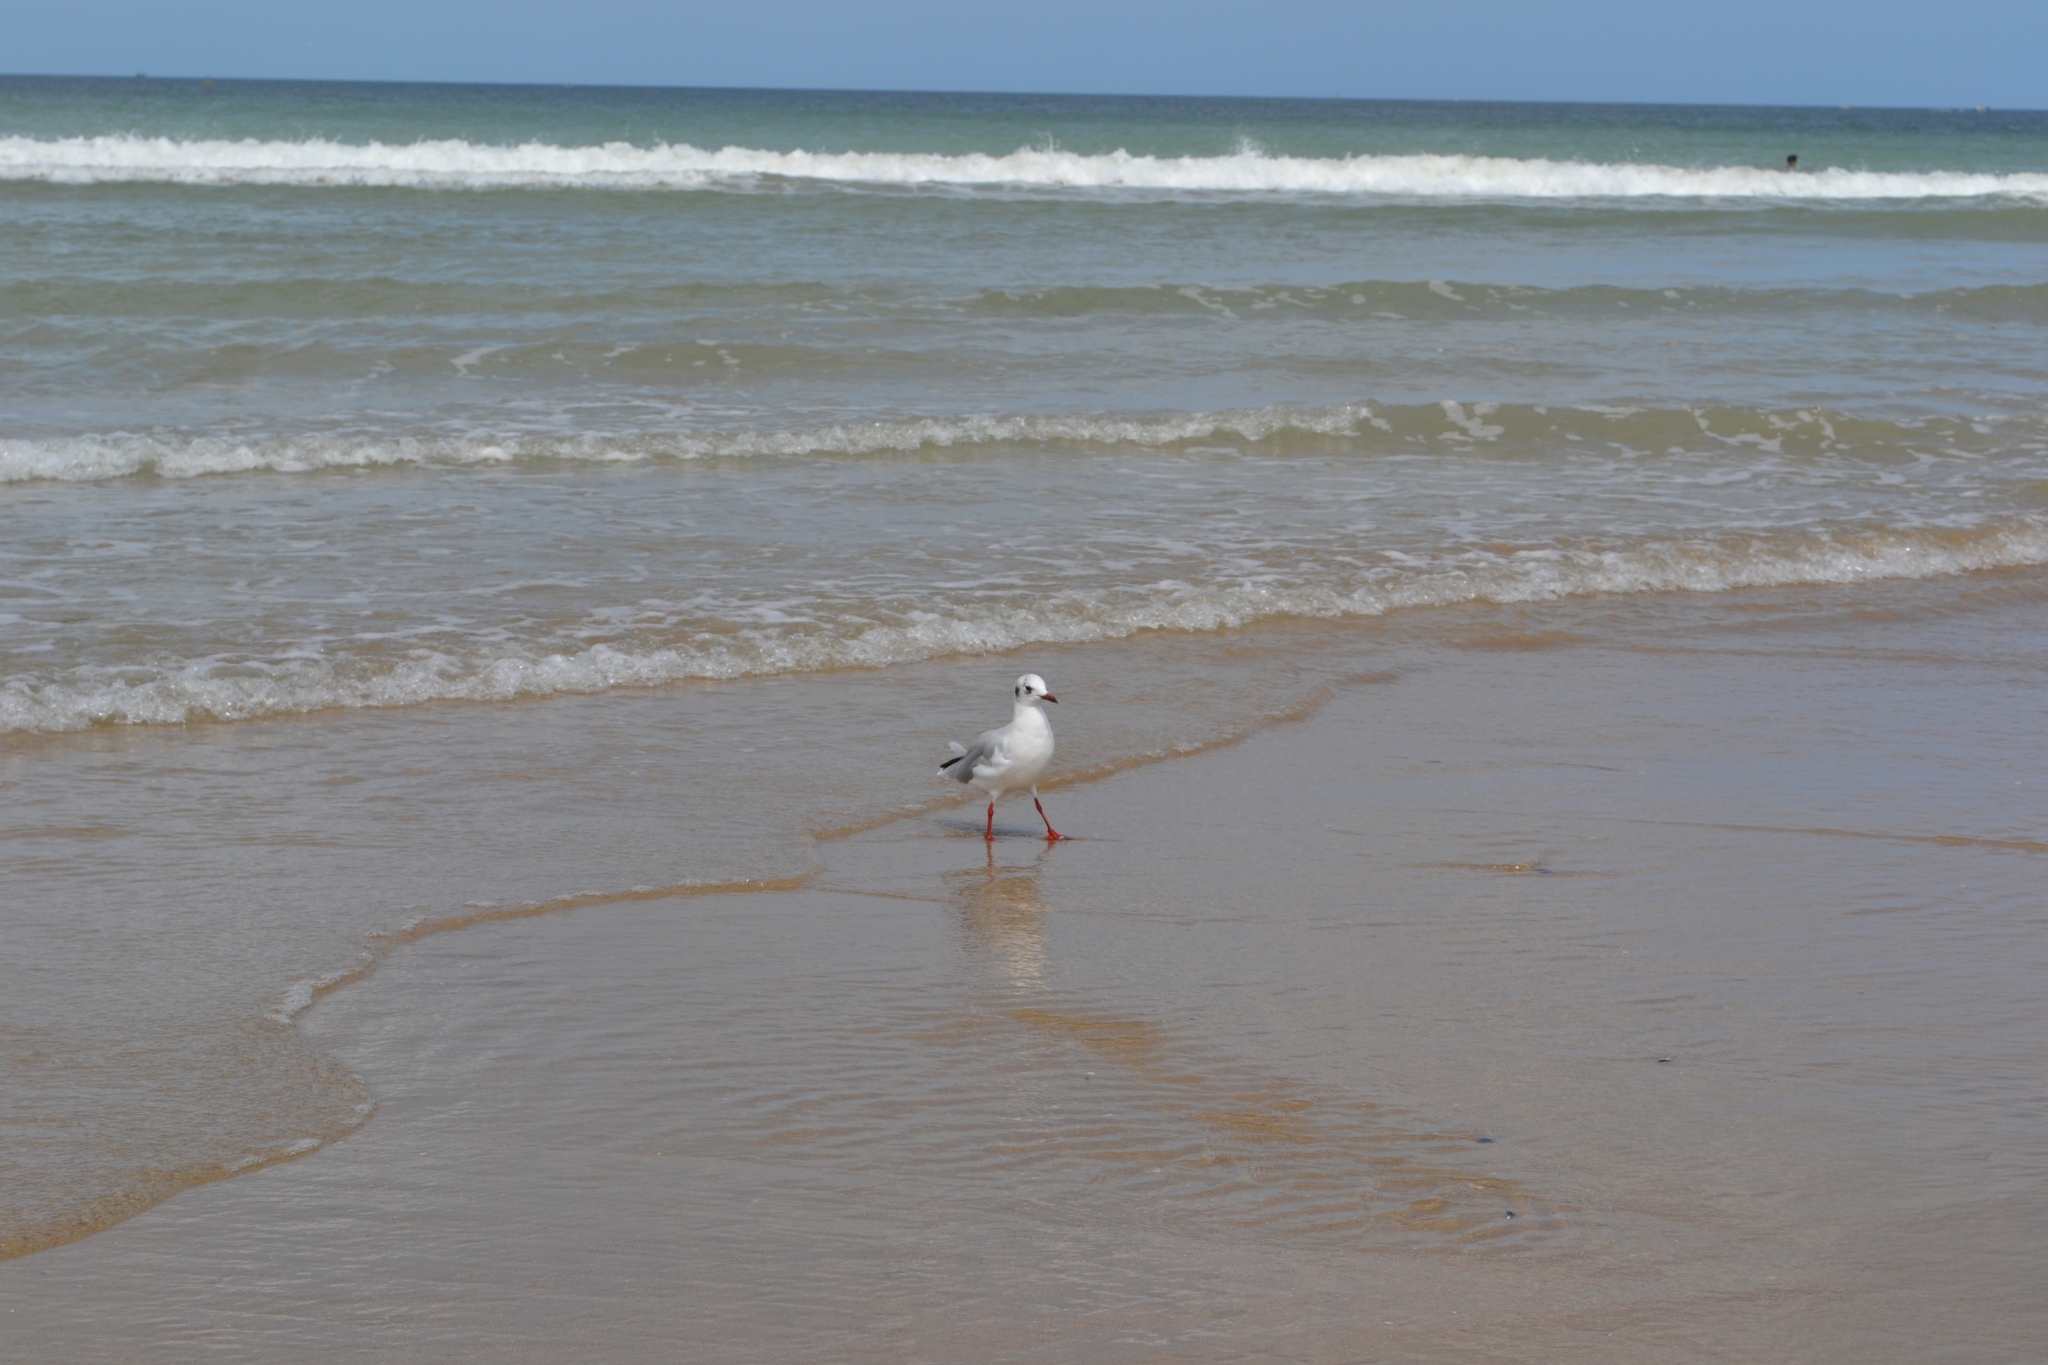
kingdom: Animalia
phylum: Chordata
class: Aves
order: Charadriiformes
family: Laridae
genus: Chroicocephalus
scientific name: Chroicocephalus ridibundus
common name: Black-headed gull
